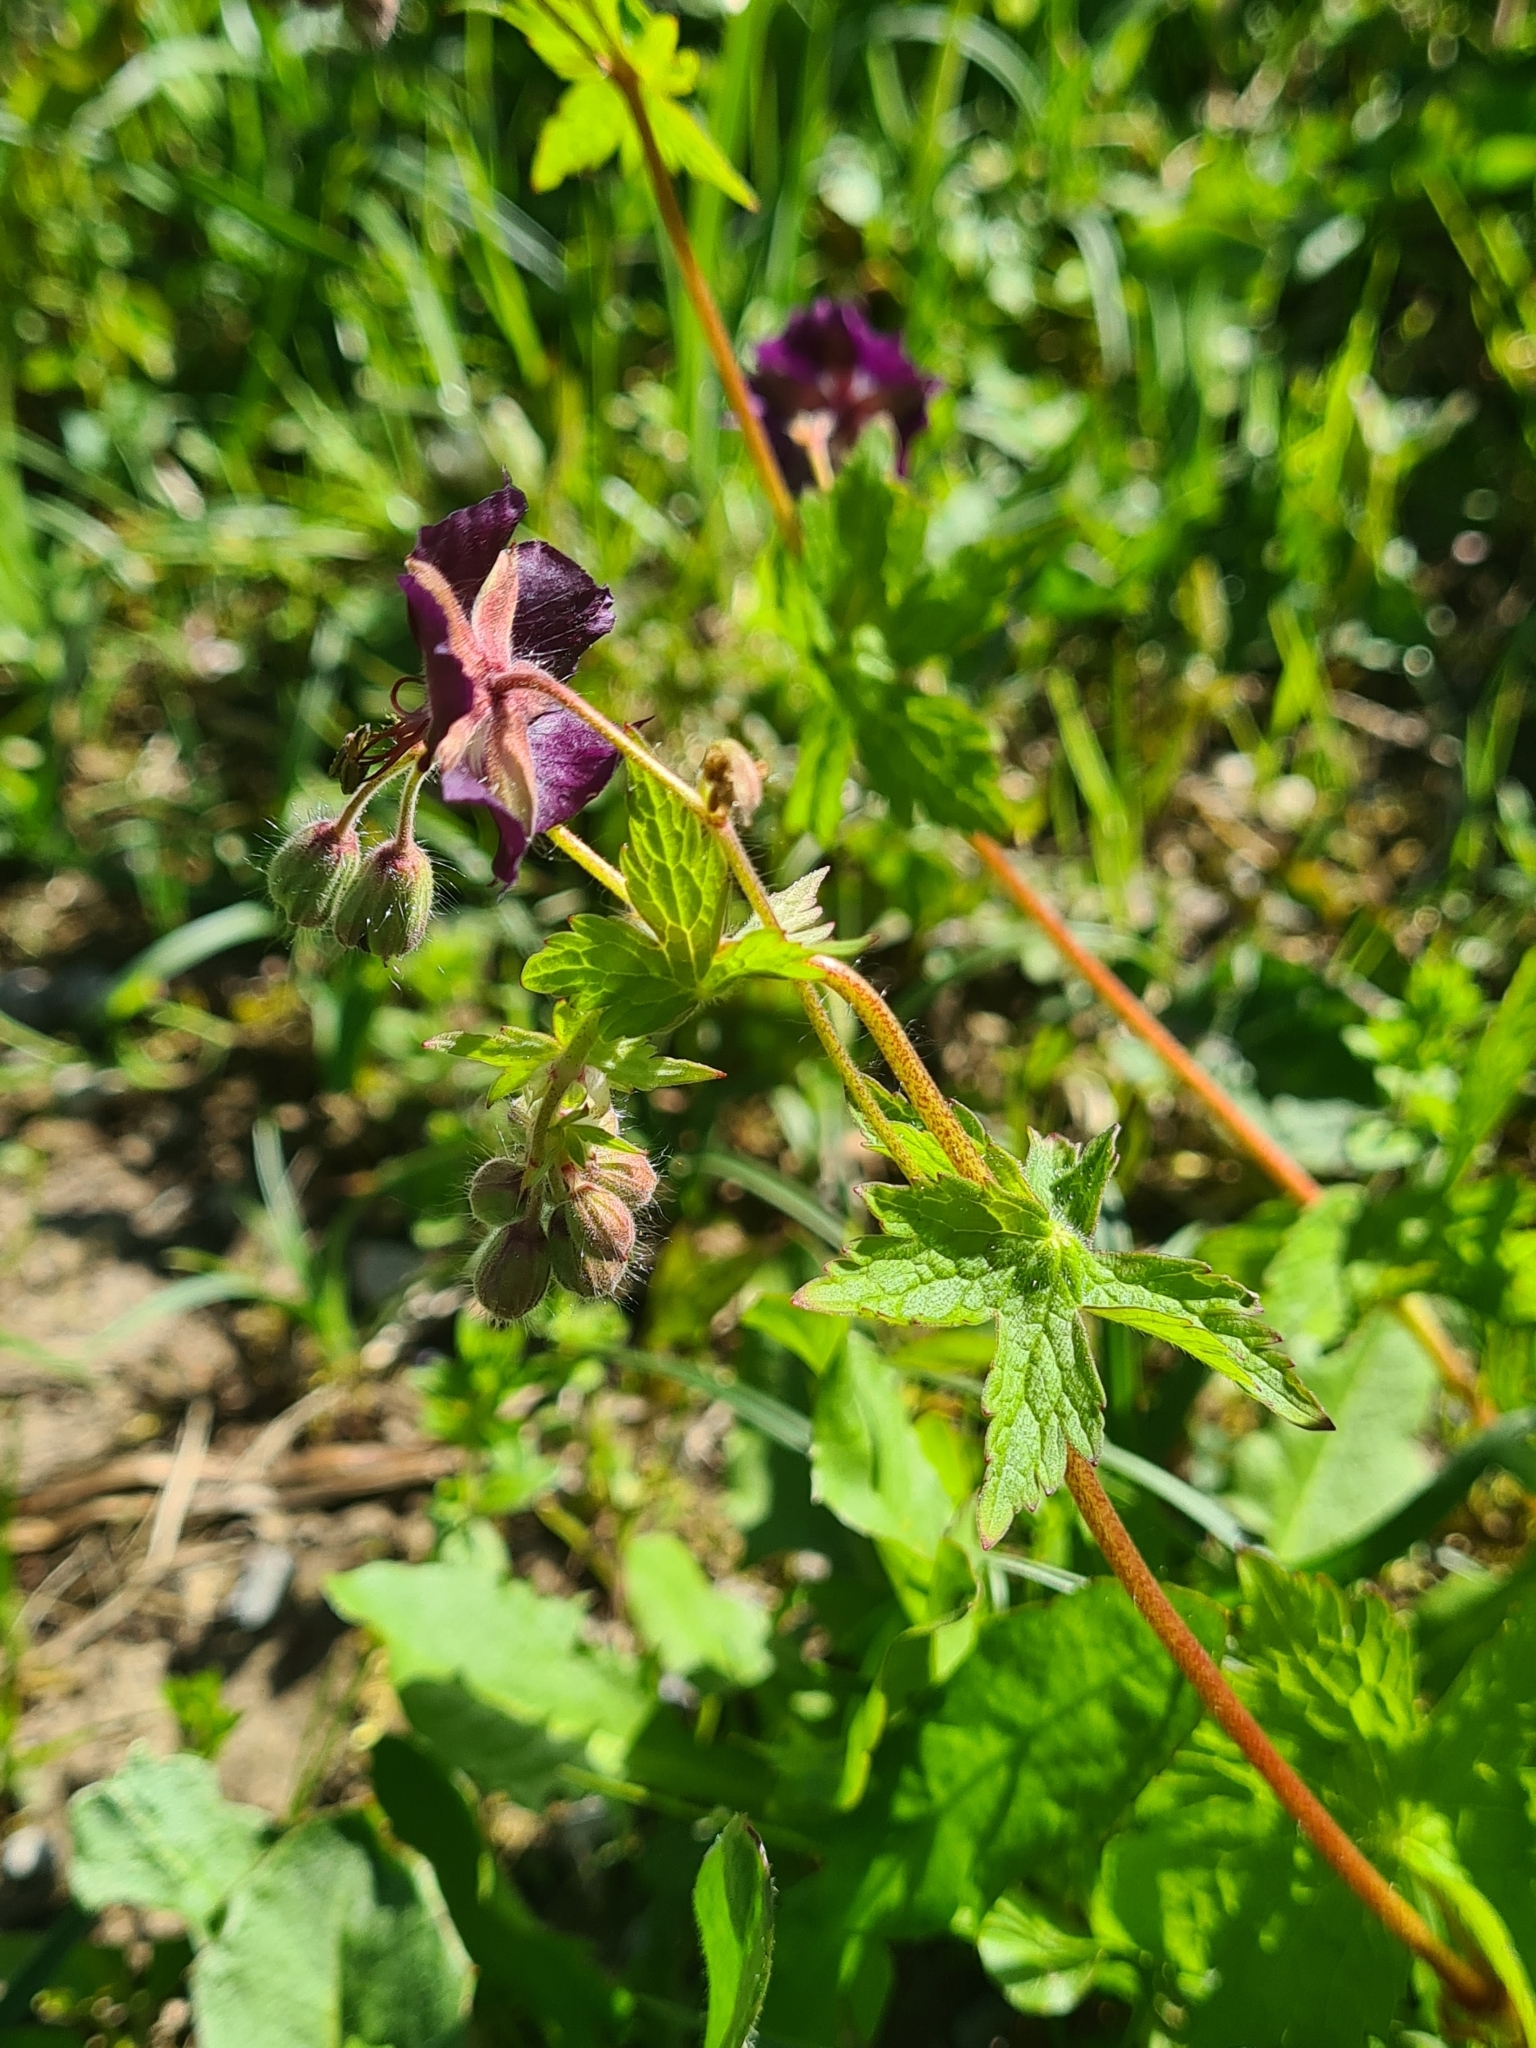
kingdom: Plantae
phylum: Tracheophyta
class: Magnoliopsida
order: Geraniales
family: Geraniaceae
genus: Geranium
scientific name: Geranium phaeum
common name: Dusky crane's-bill
